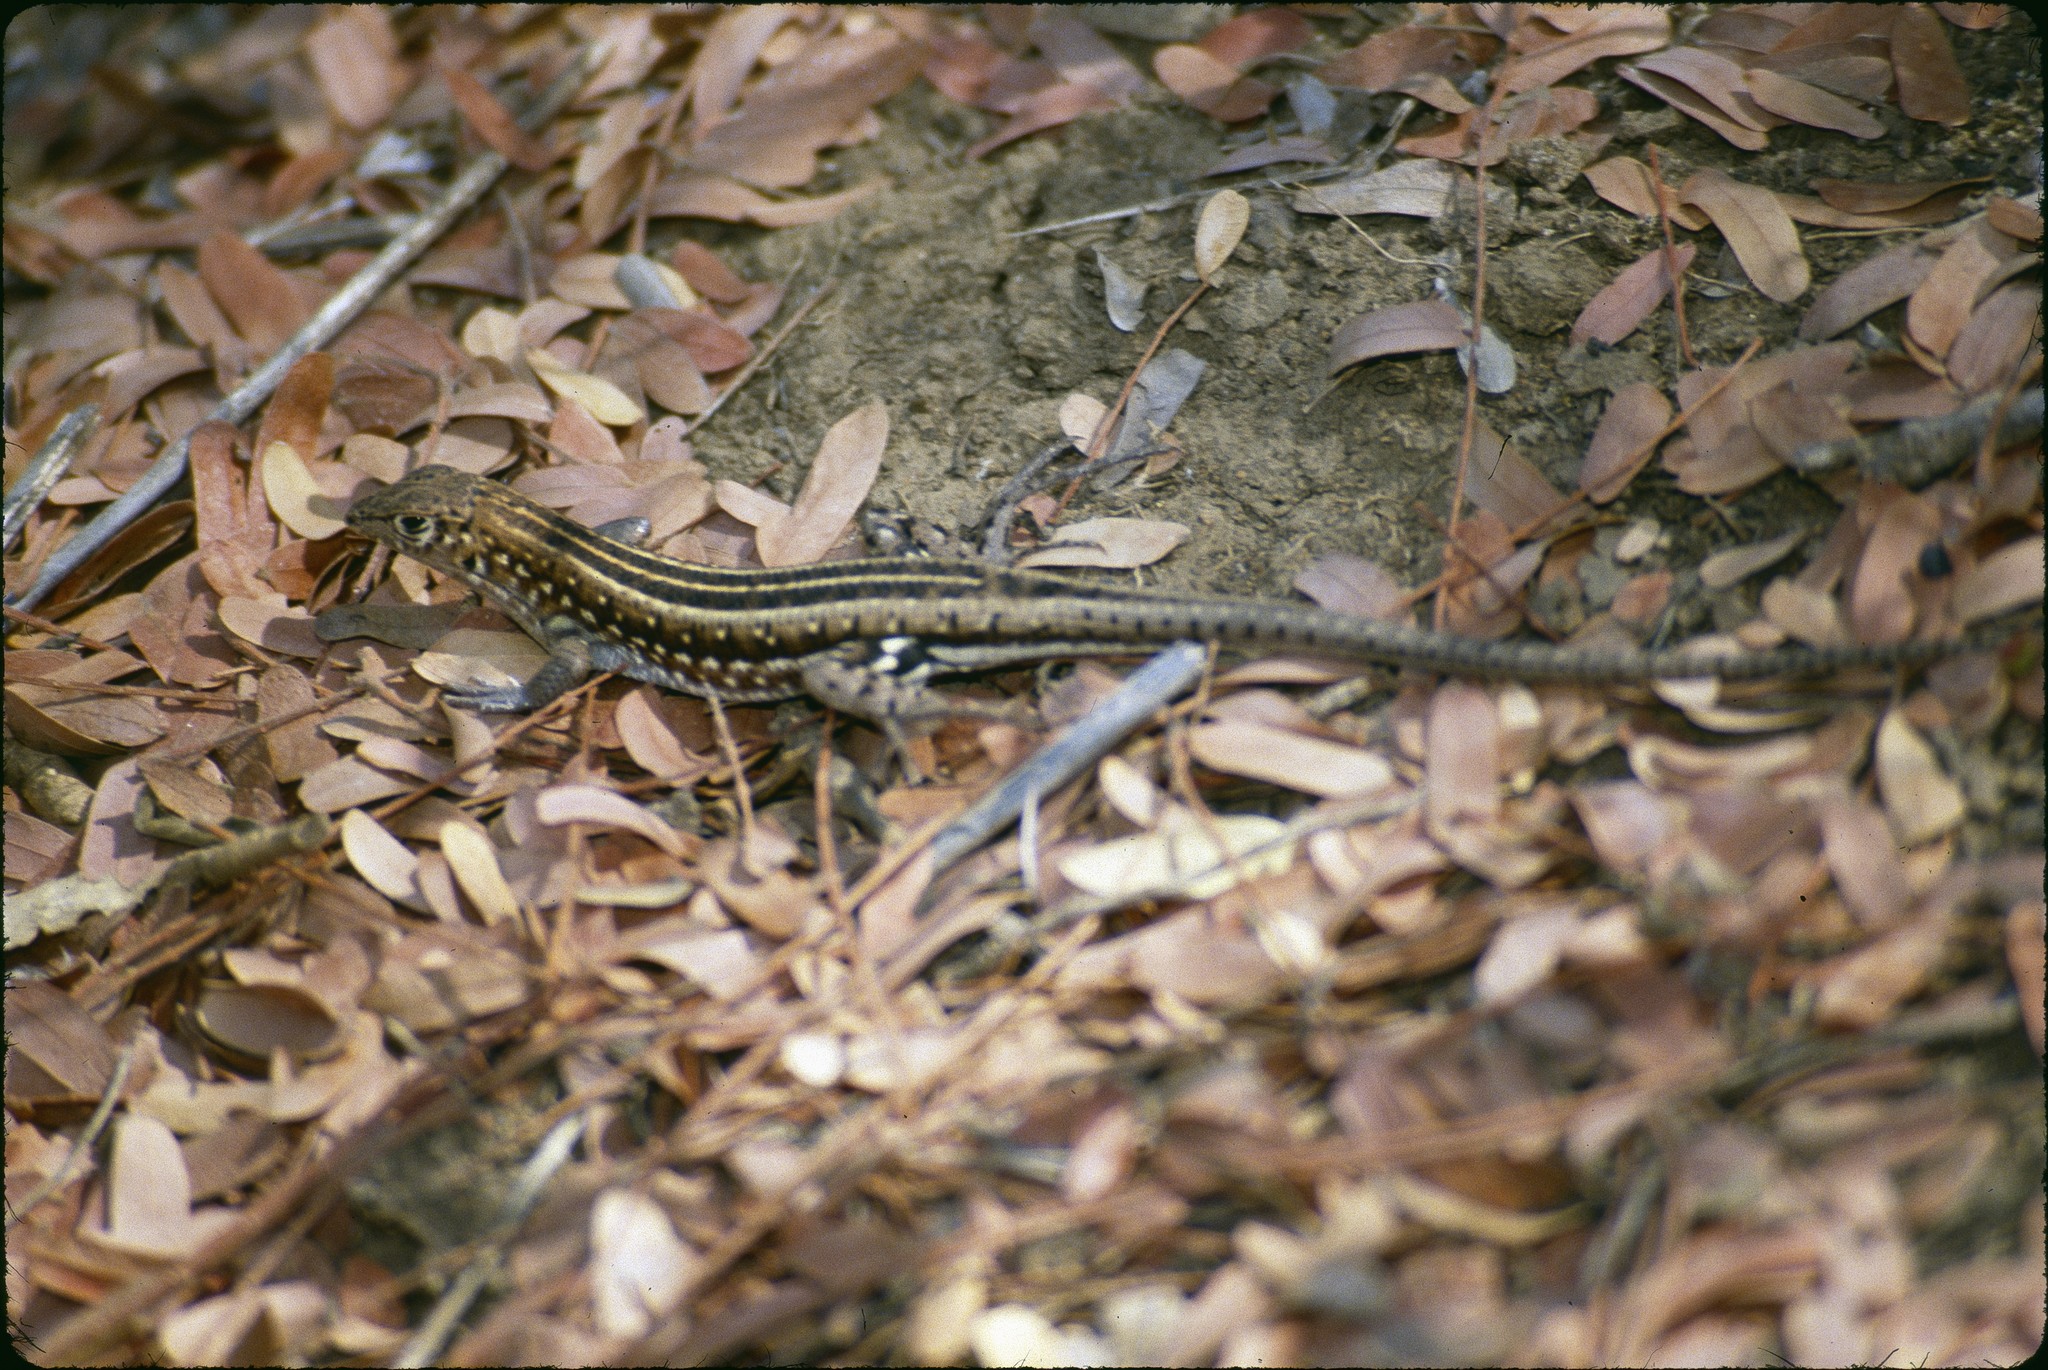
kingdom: Animalia
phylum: Chordata
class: Squamata
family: Gerrhosauridae
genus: Tracheloptychus
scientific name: Tracheloptychus madagascariensis
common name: Madagascar girdled lizard
